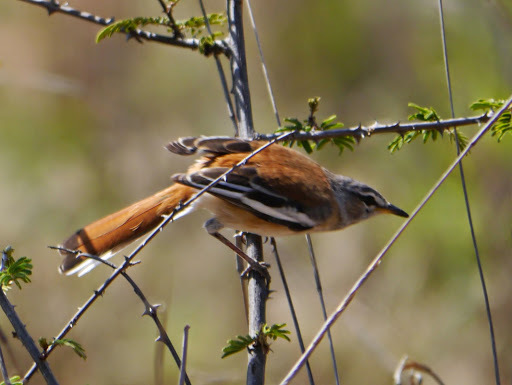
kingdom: Animalia
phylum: Chordata
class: Aves
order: Passeriformes
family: Muscicapidae
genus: Erythropygia
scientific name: Erythropygia leucophrys
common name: White-browed scrub robin
